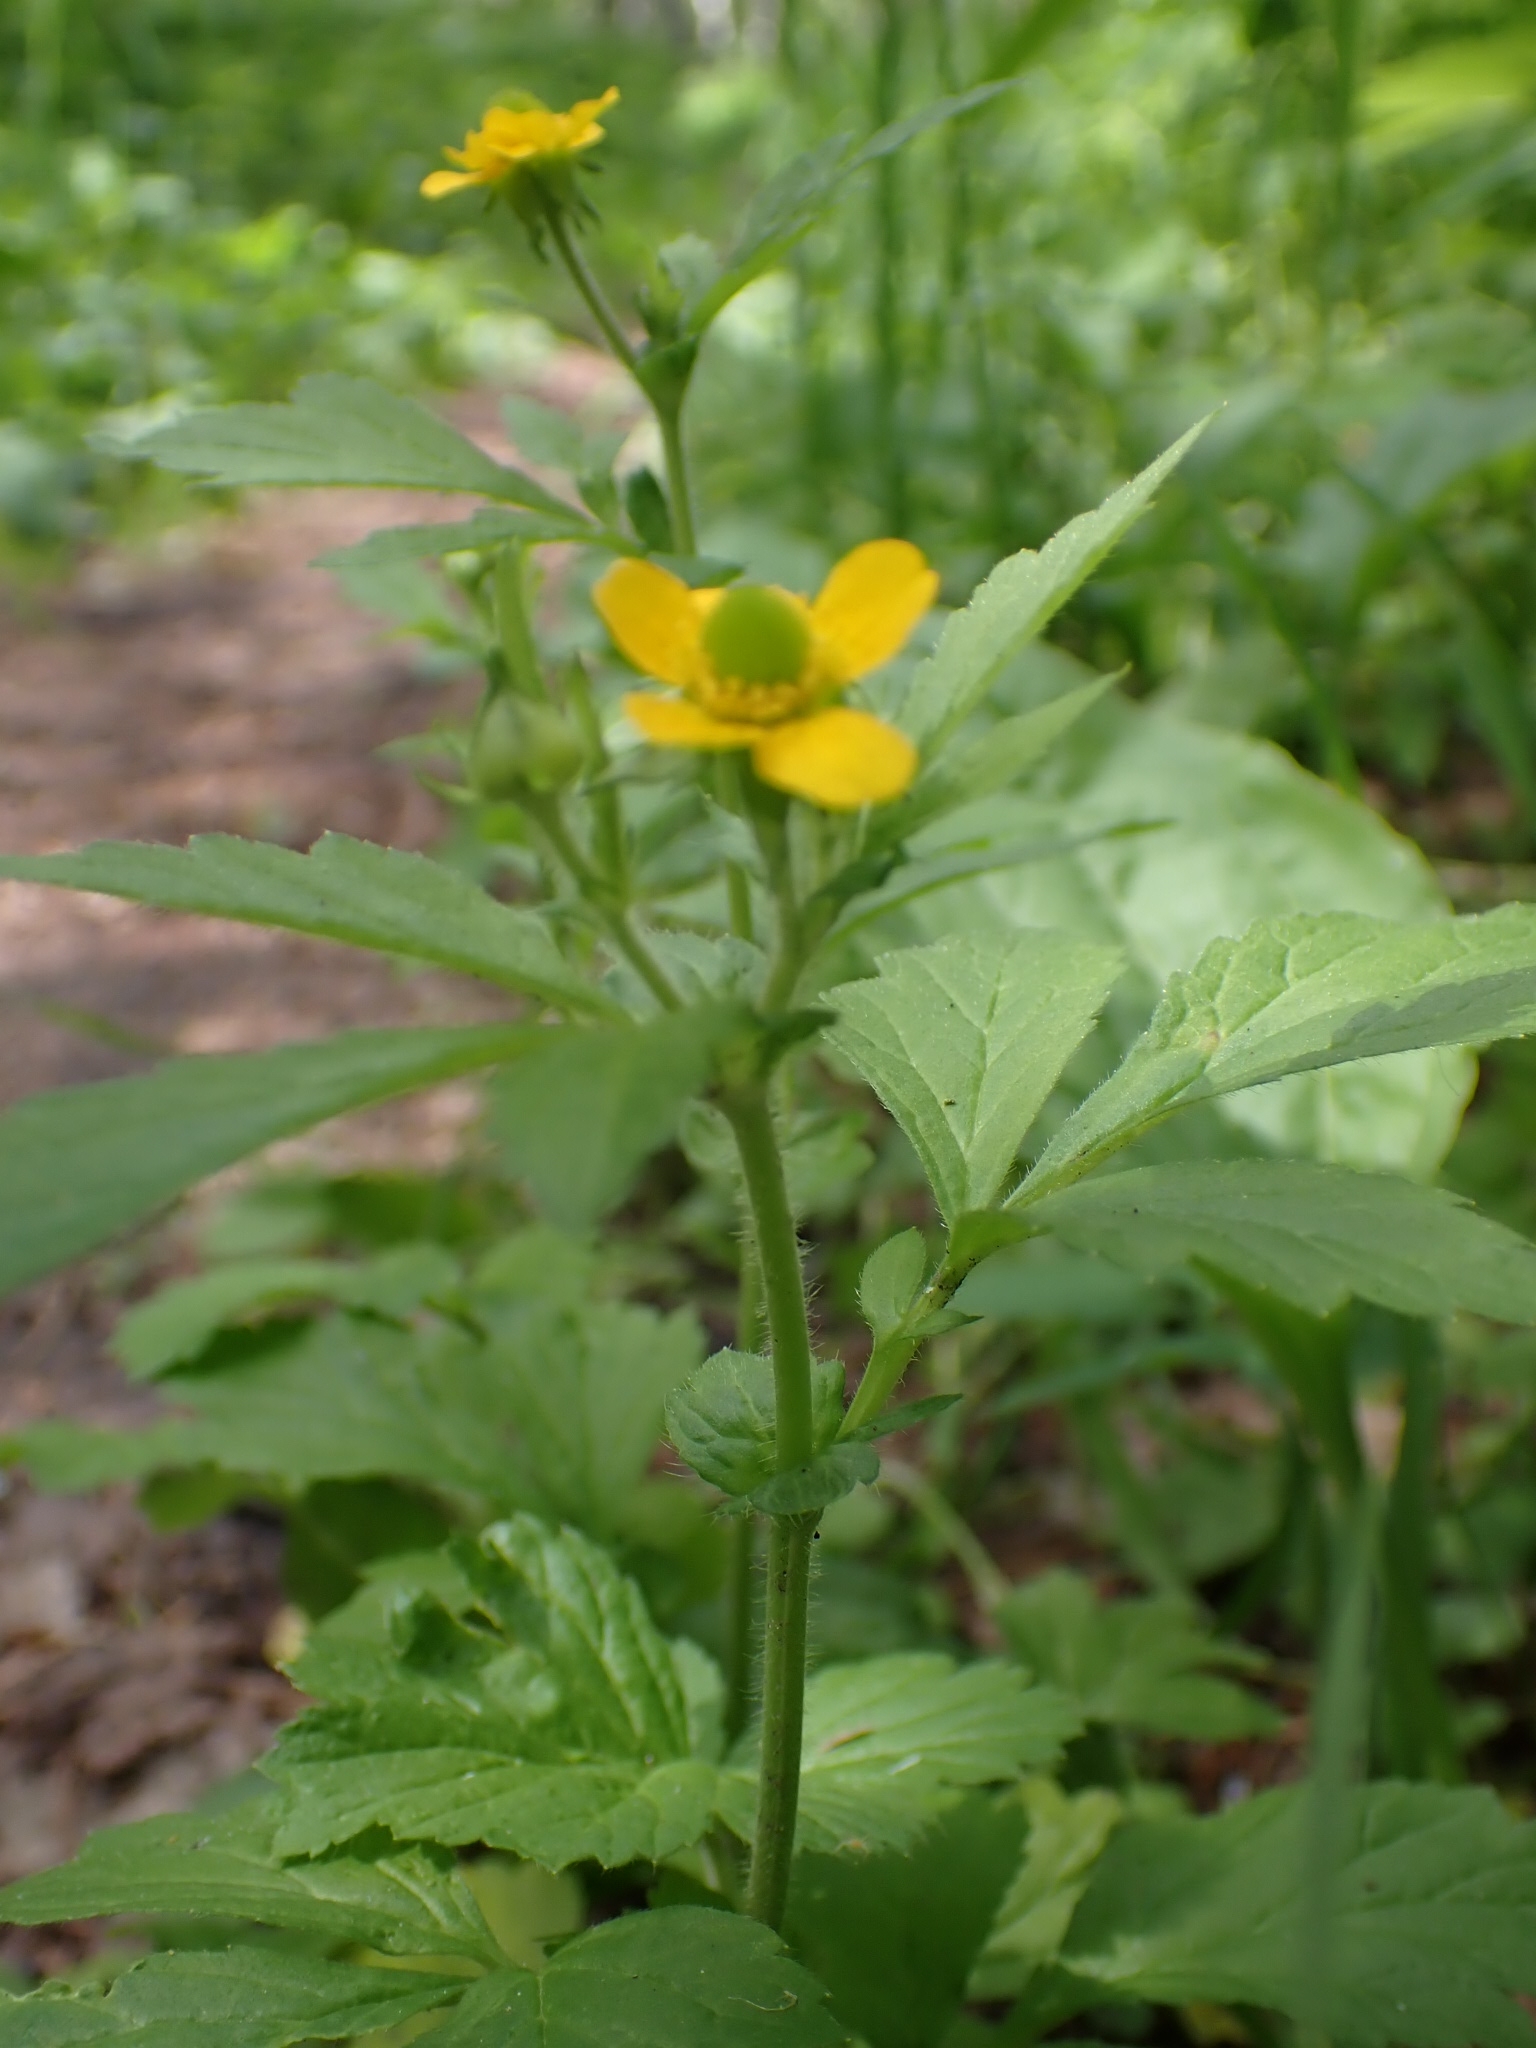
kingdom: Plantae
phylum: Tracheophyta
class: Magnoliopsida
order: Rosales
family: Rosaceae
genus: Geum
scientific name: Geum aleppicum
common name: Yellow avens
